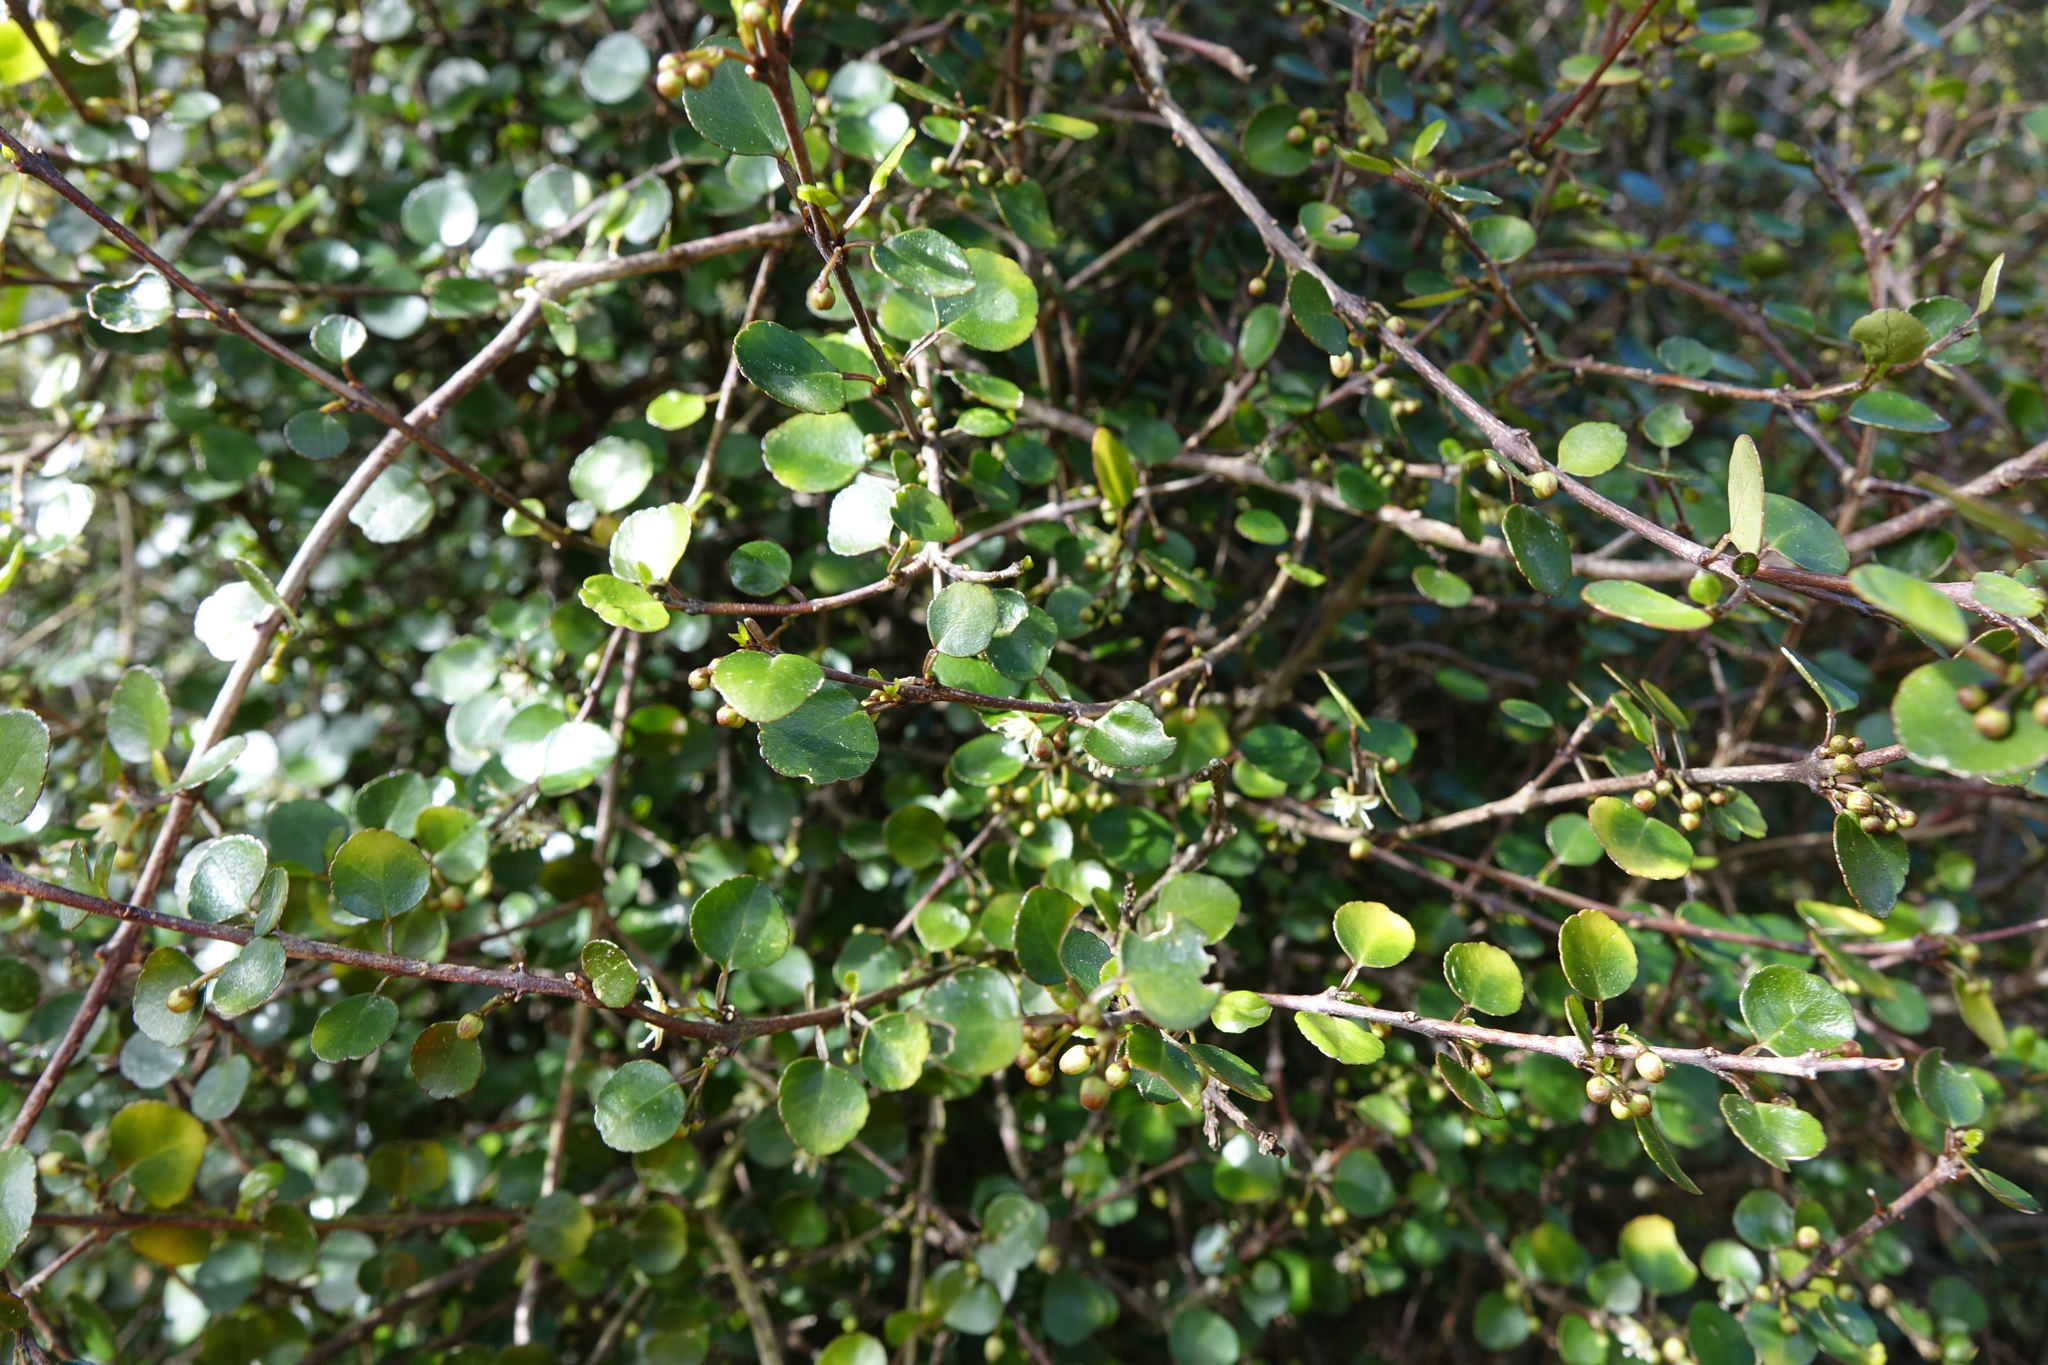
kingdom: Plantae
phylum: Tracheophyta
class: Magnoliopsida
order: Sapindales
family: Rutaceae
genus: Melicope
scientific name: Melicope simplex
